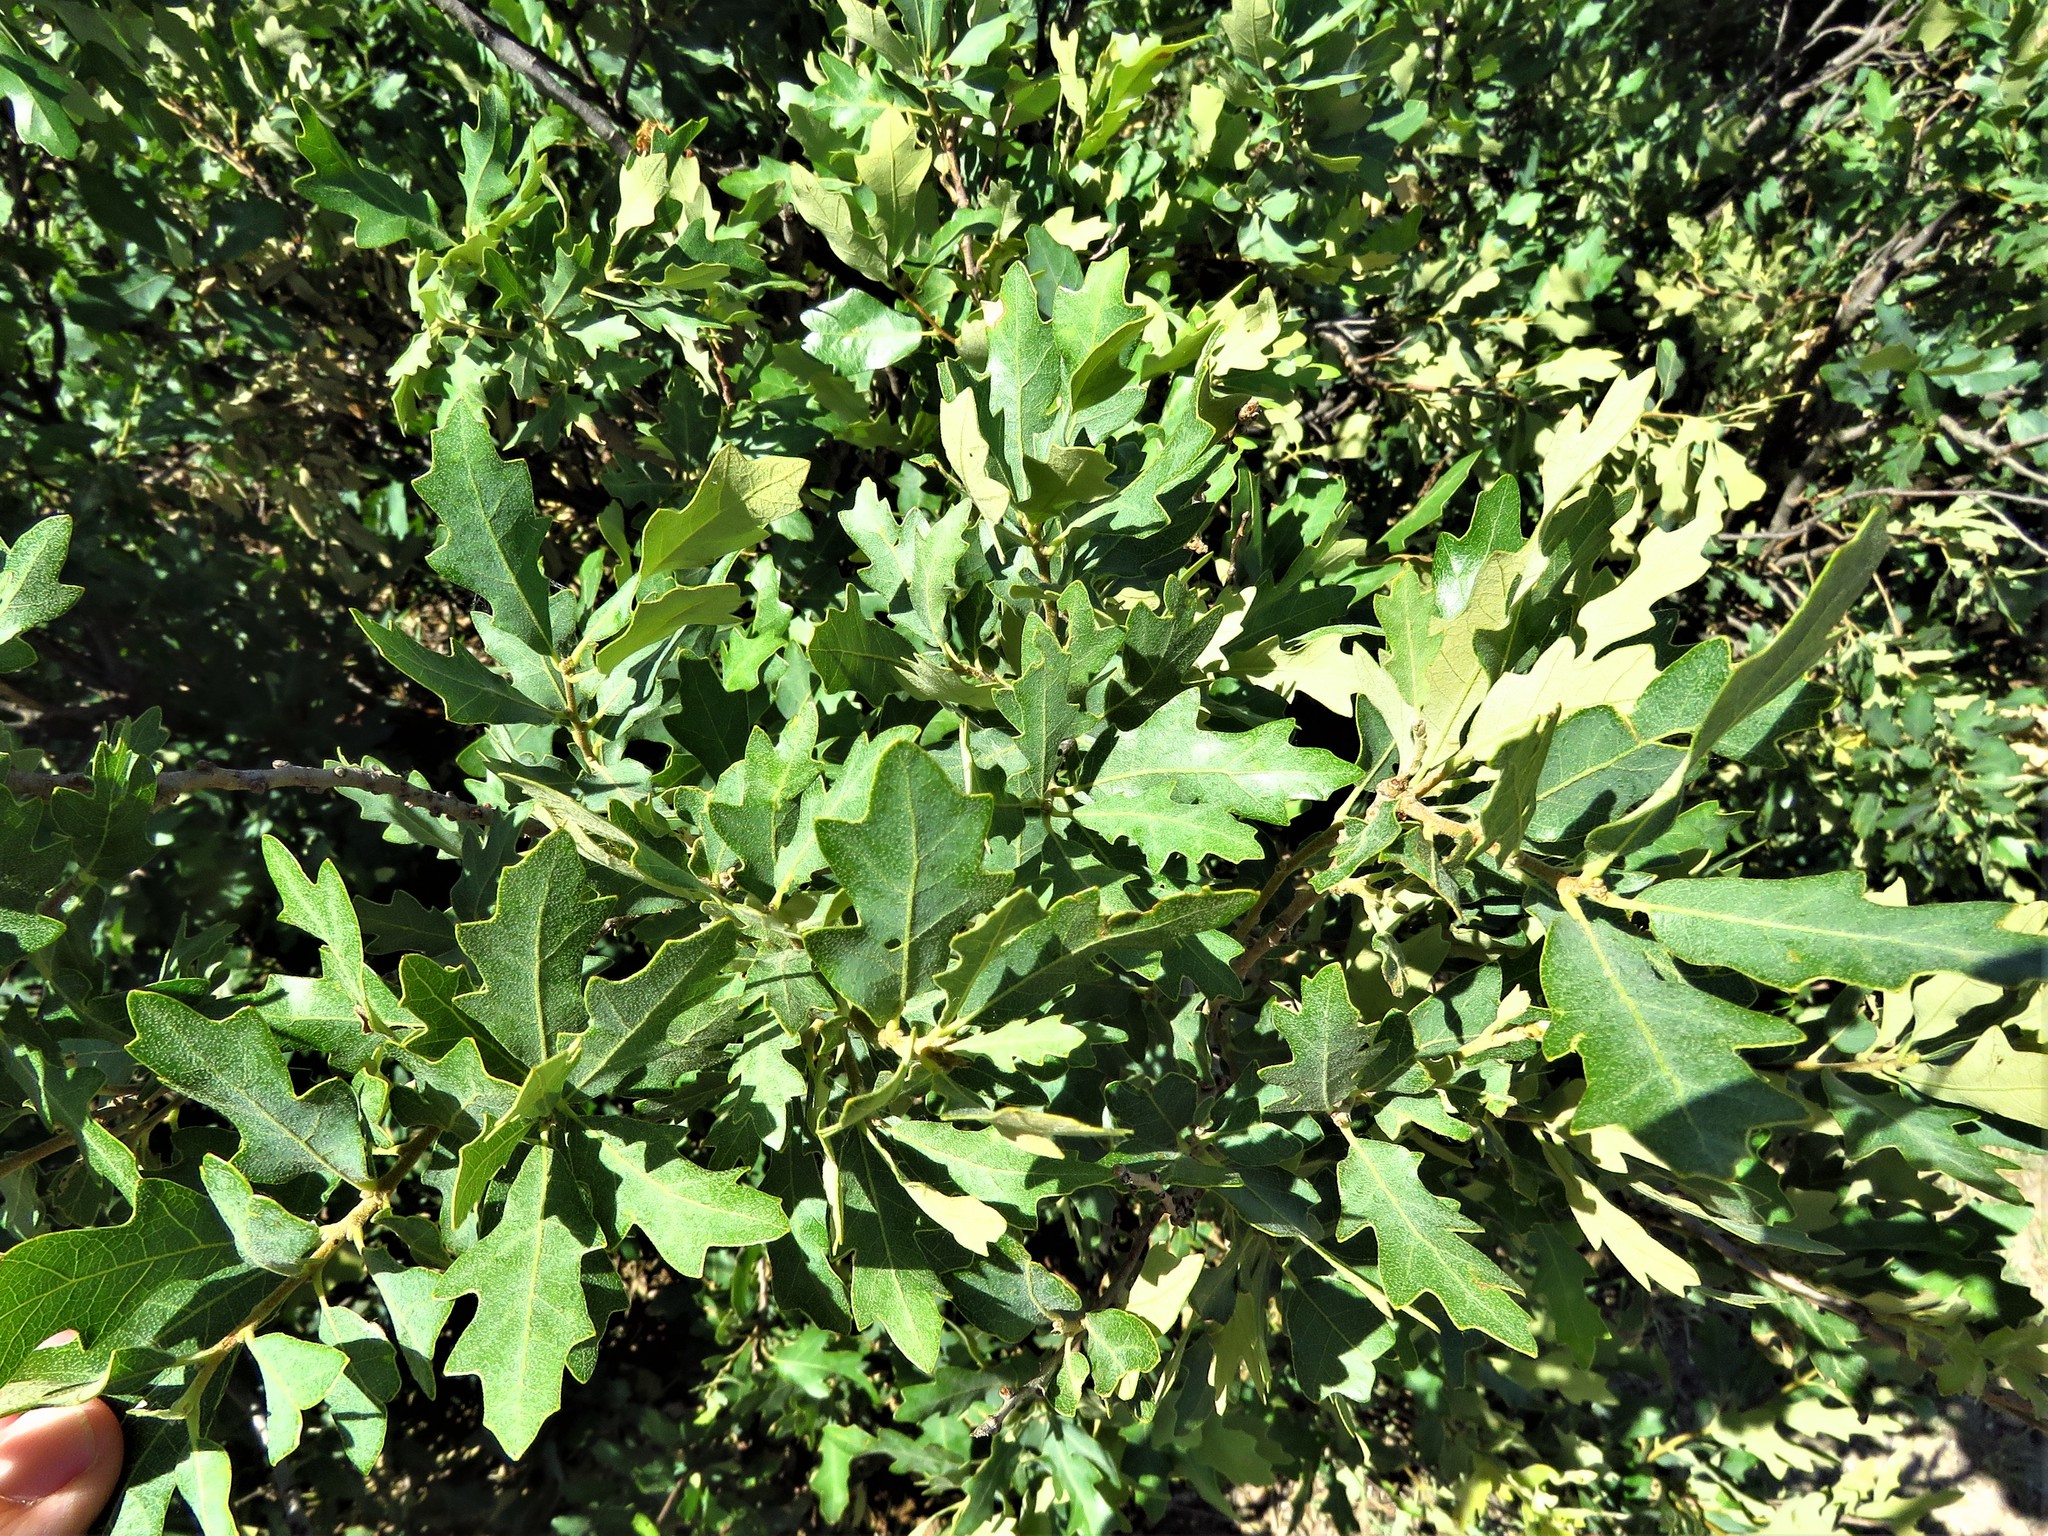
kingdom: Plantae
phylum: Tracheophyta
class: Magnoliopsida
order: Fagales
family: Fagaceae
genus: Quercus
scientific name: Quercus havardii
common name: Shinnery oak
